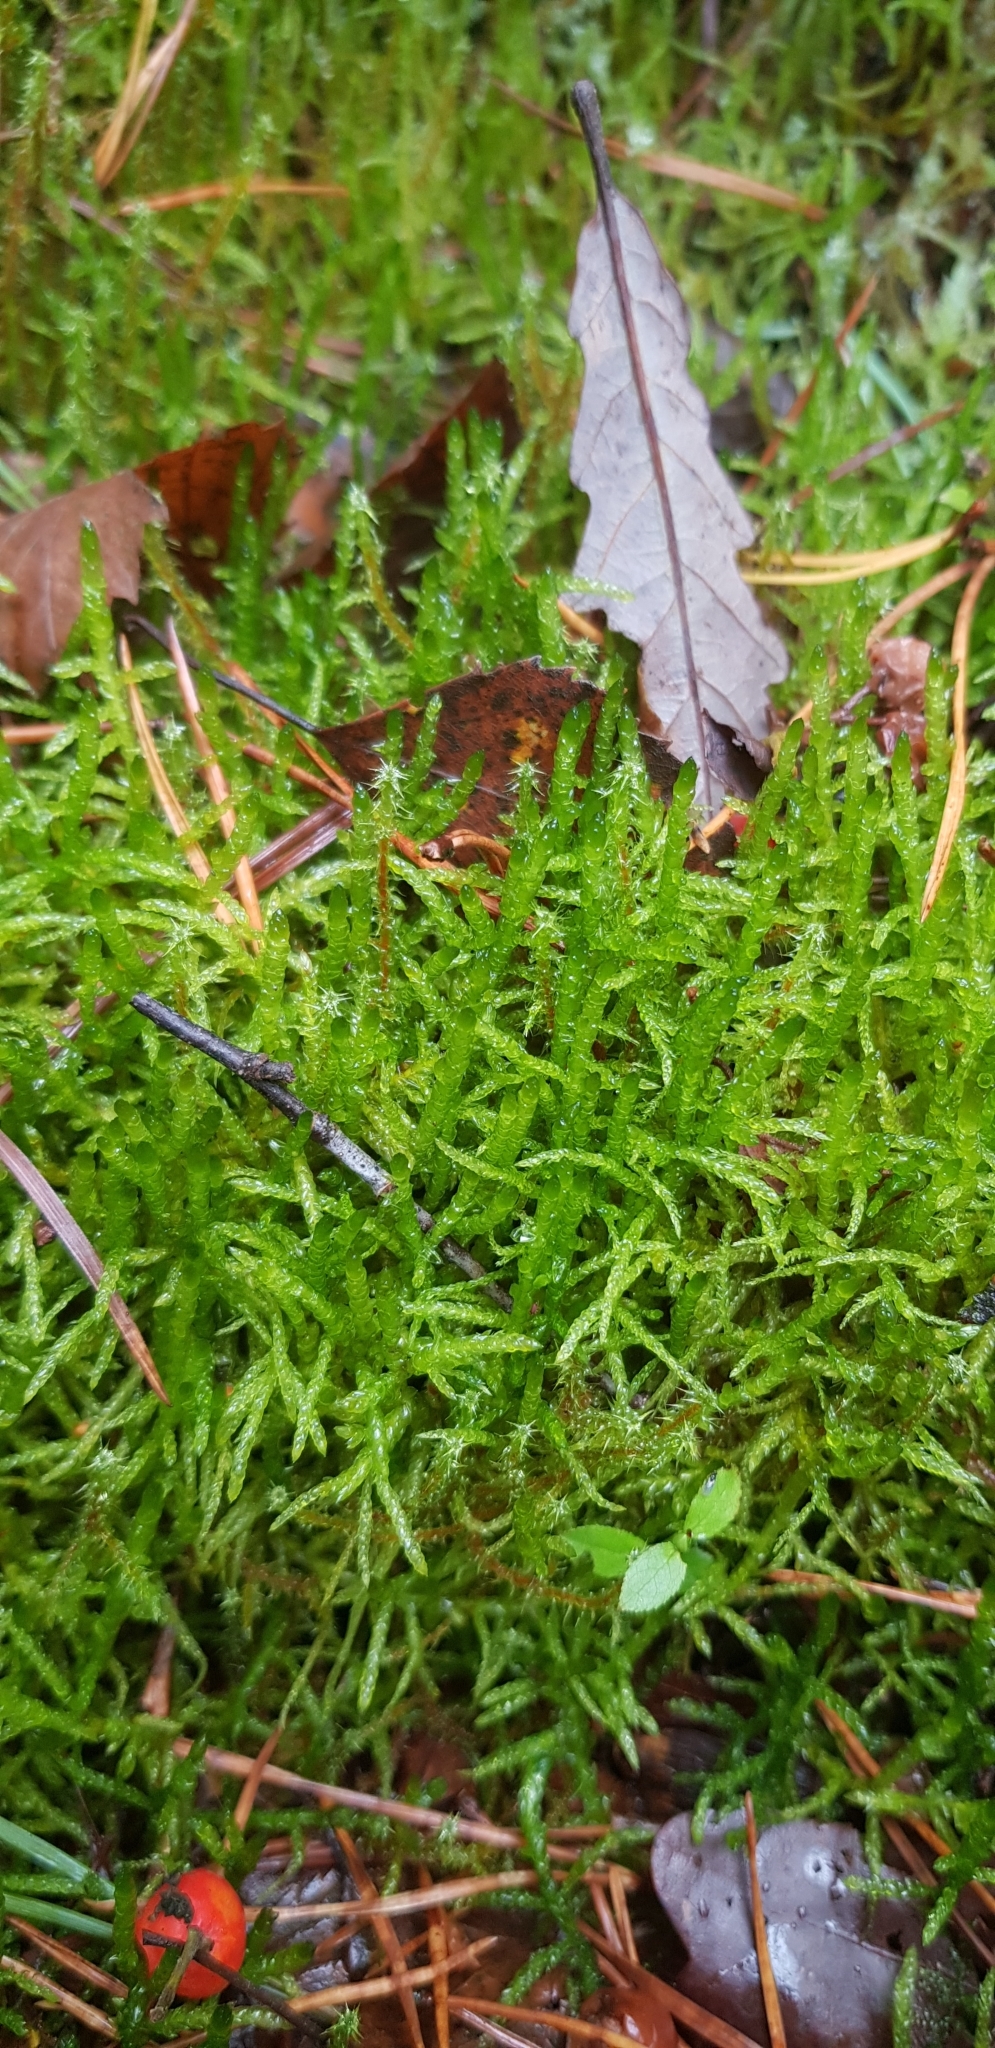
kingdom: Plantae
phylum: Bryophyta
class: Bryopsida
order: Hypnales
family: Brachytheciaceae
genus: Pseudoscleropodium
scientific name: Pseudoscleropodium purum
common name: Neat feather-moss
